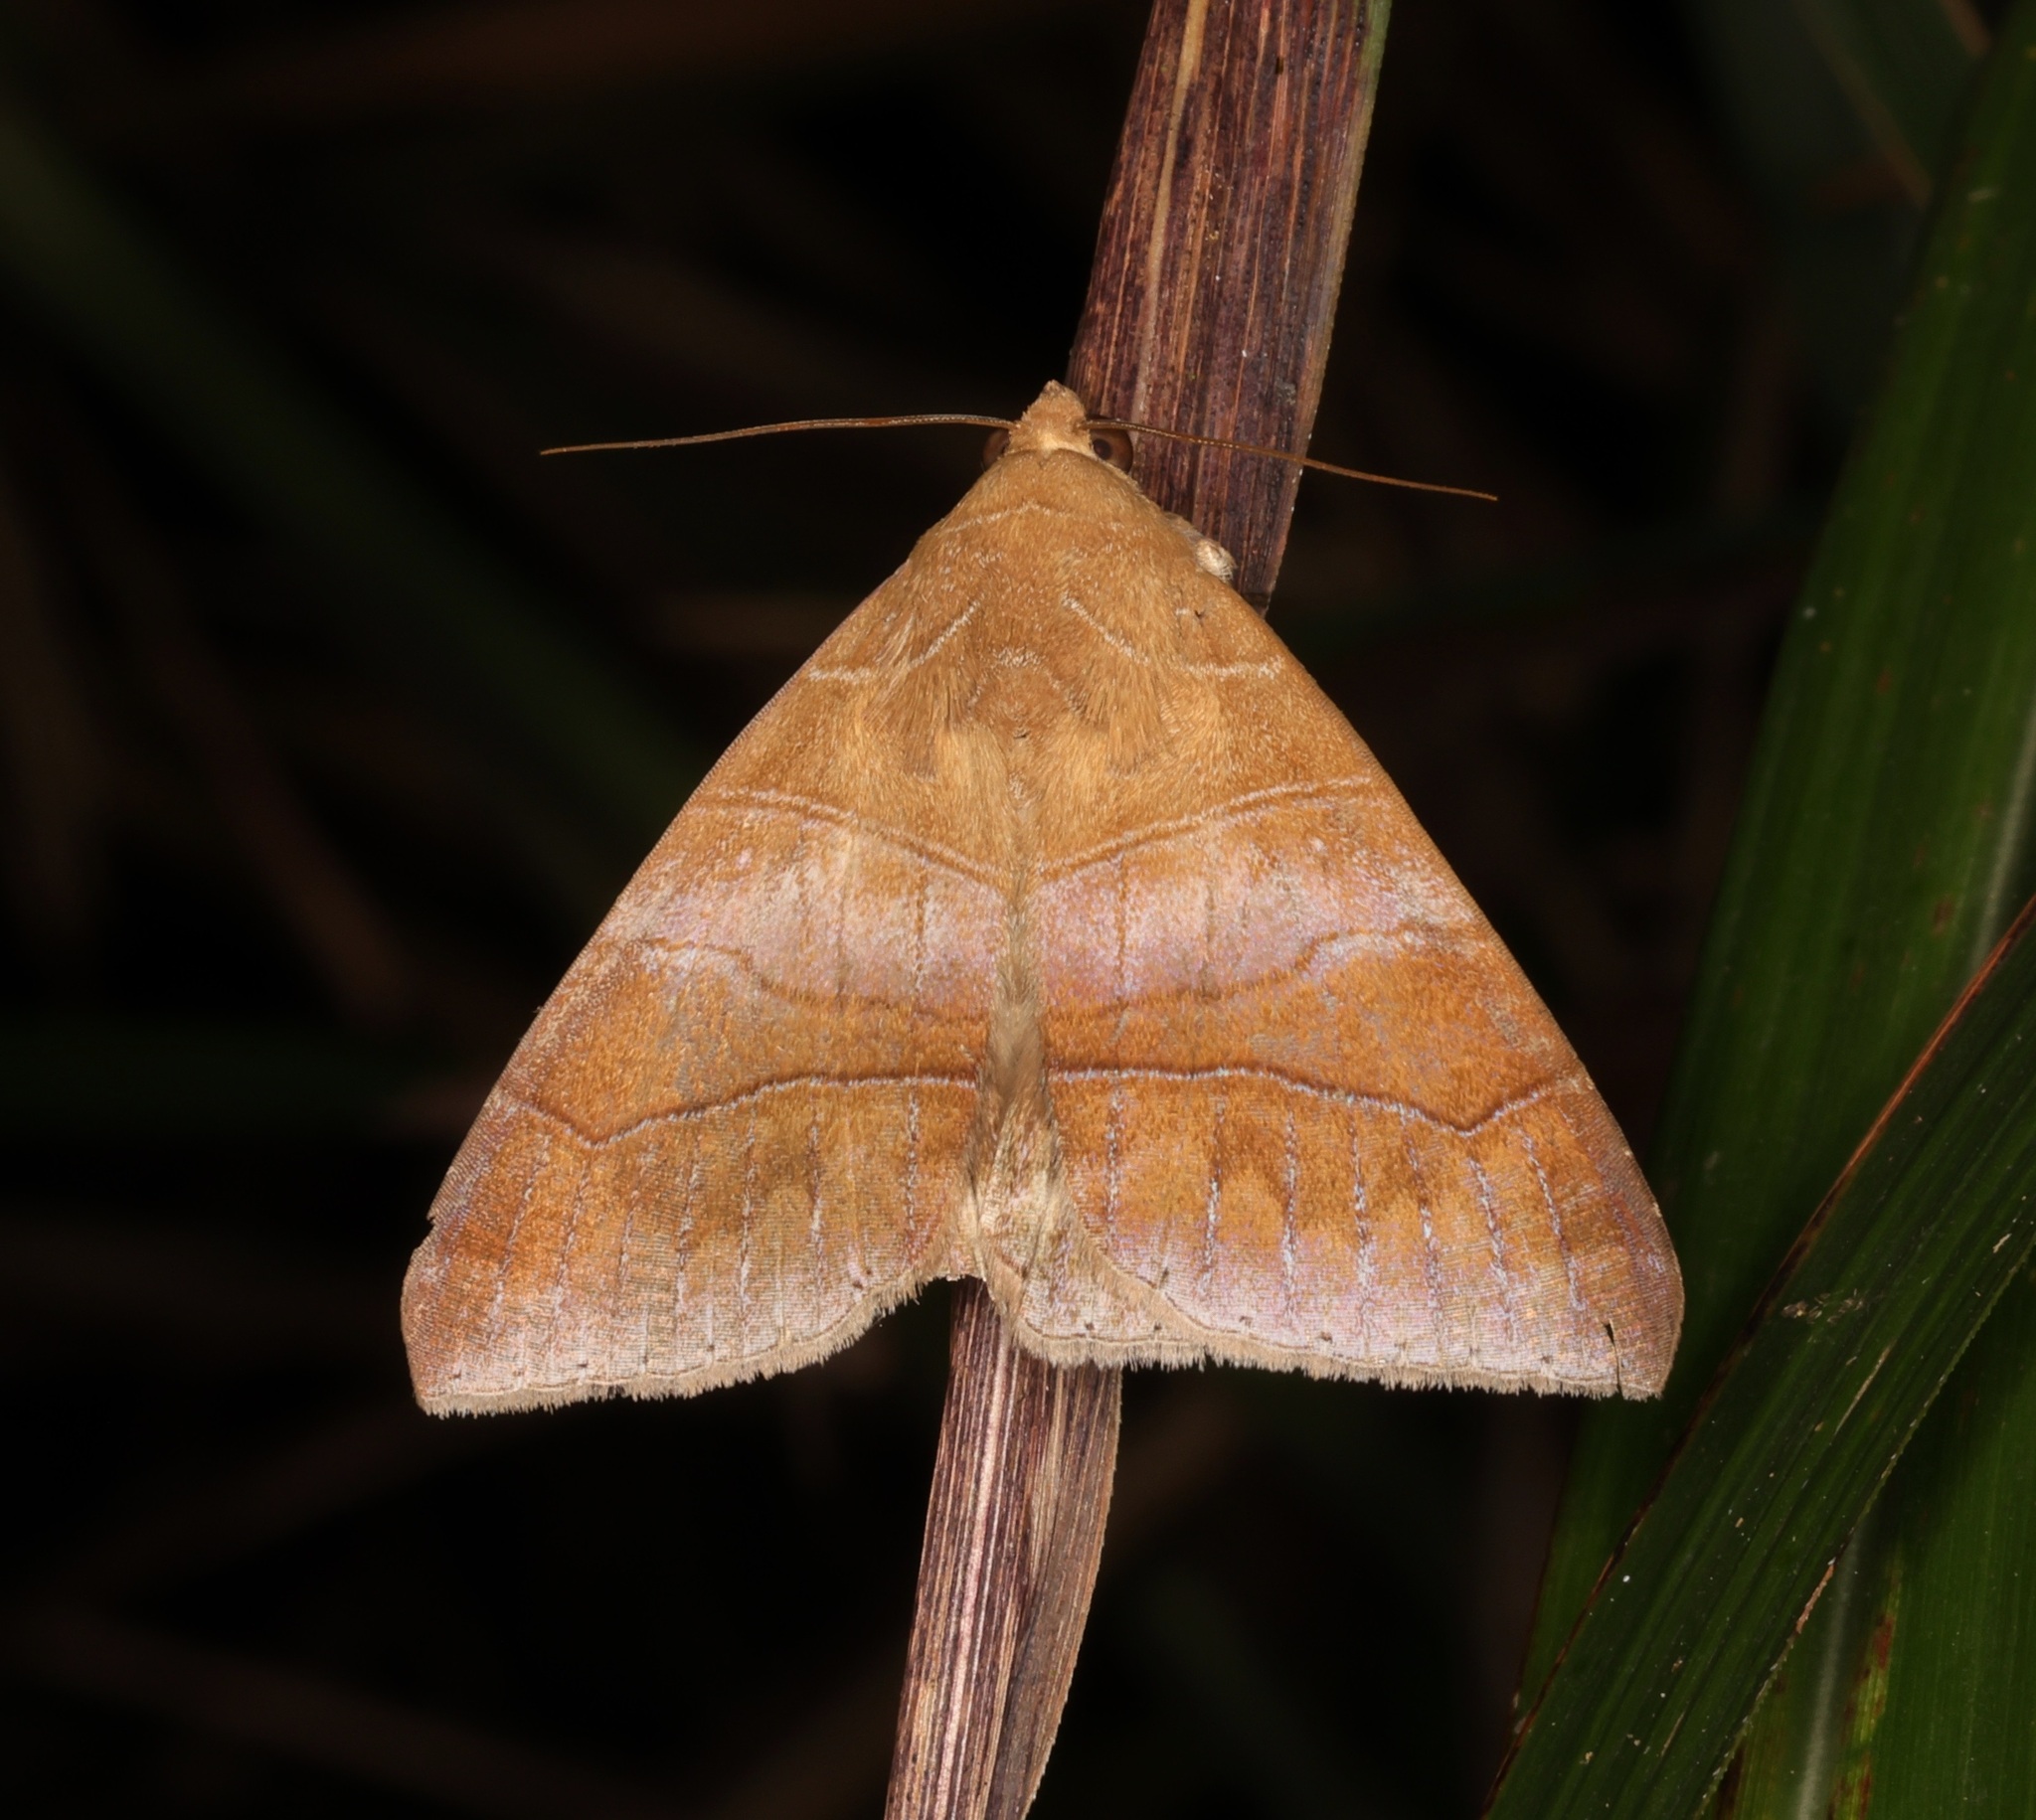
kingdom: Animalia
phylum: Arthropoda
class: Insecta
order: Lepidoptera
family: Erebidae
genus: Bastilla
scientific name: Bastilla absentimacula
